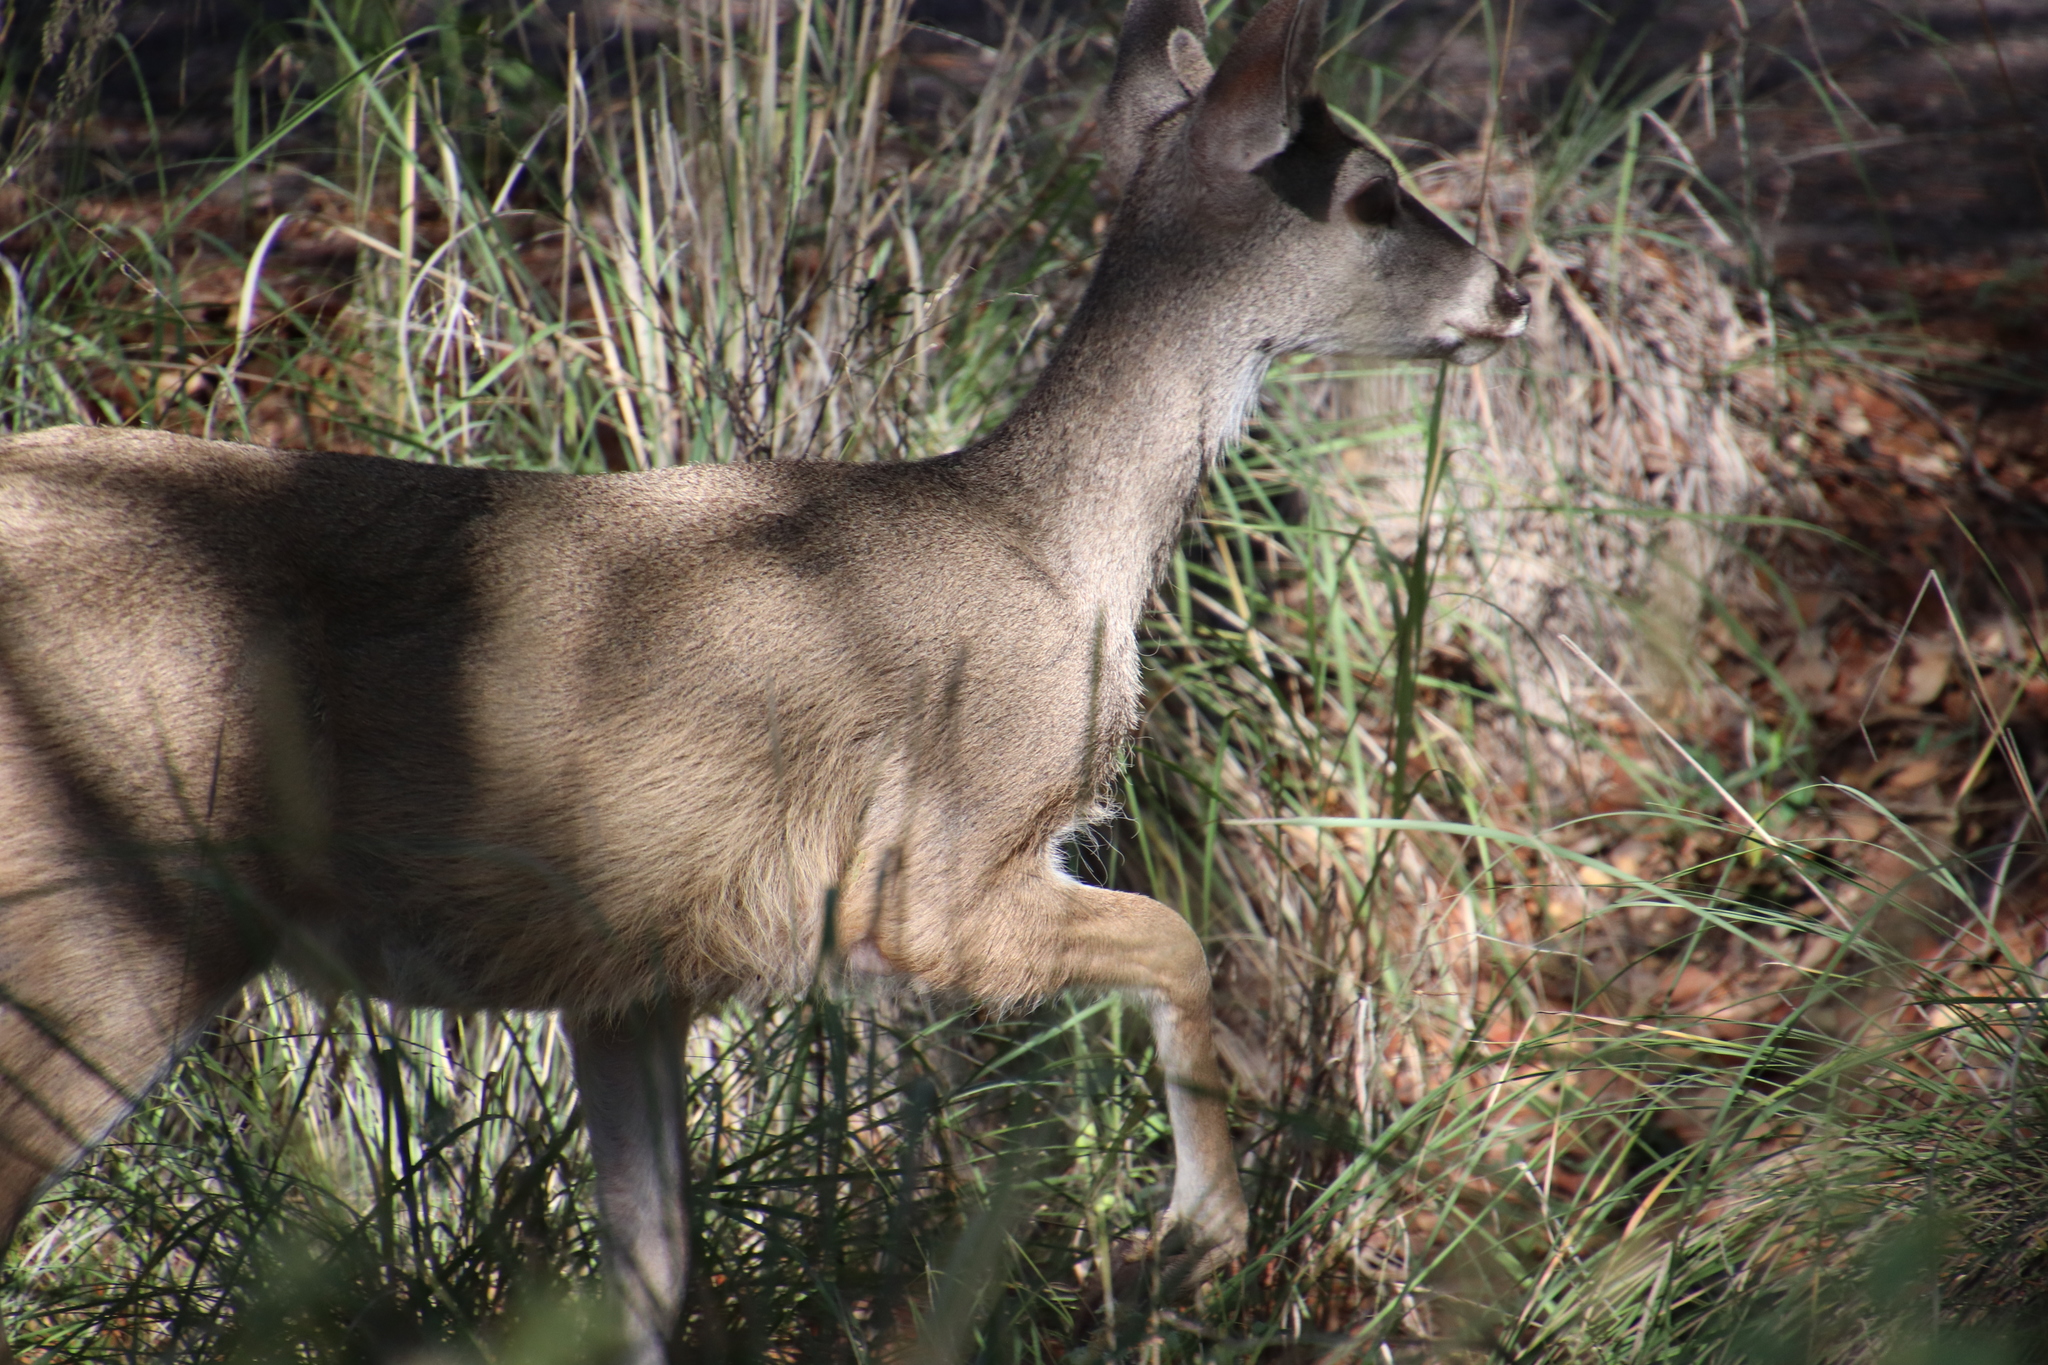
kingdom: Animalia
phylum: Chordata
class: Mammalia
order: Artiodactyla
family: Cervidae
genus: Odocoileus
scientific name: Odocoileus virginianus
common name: White-tailed deer
